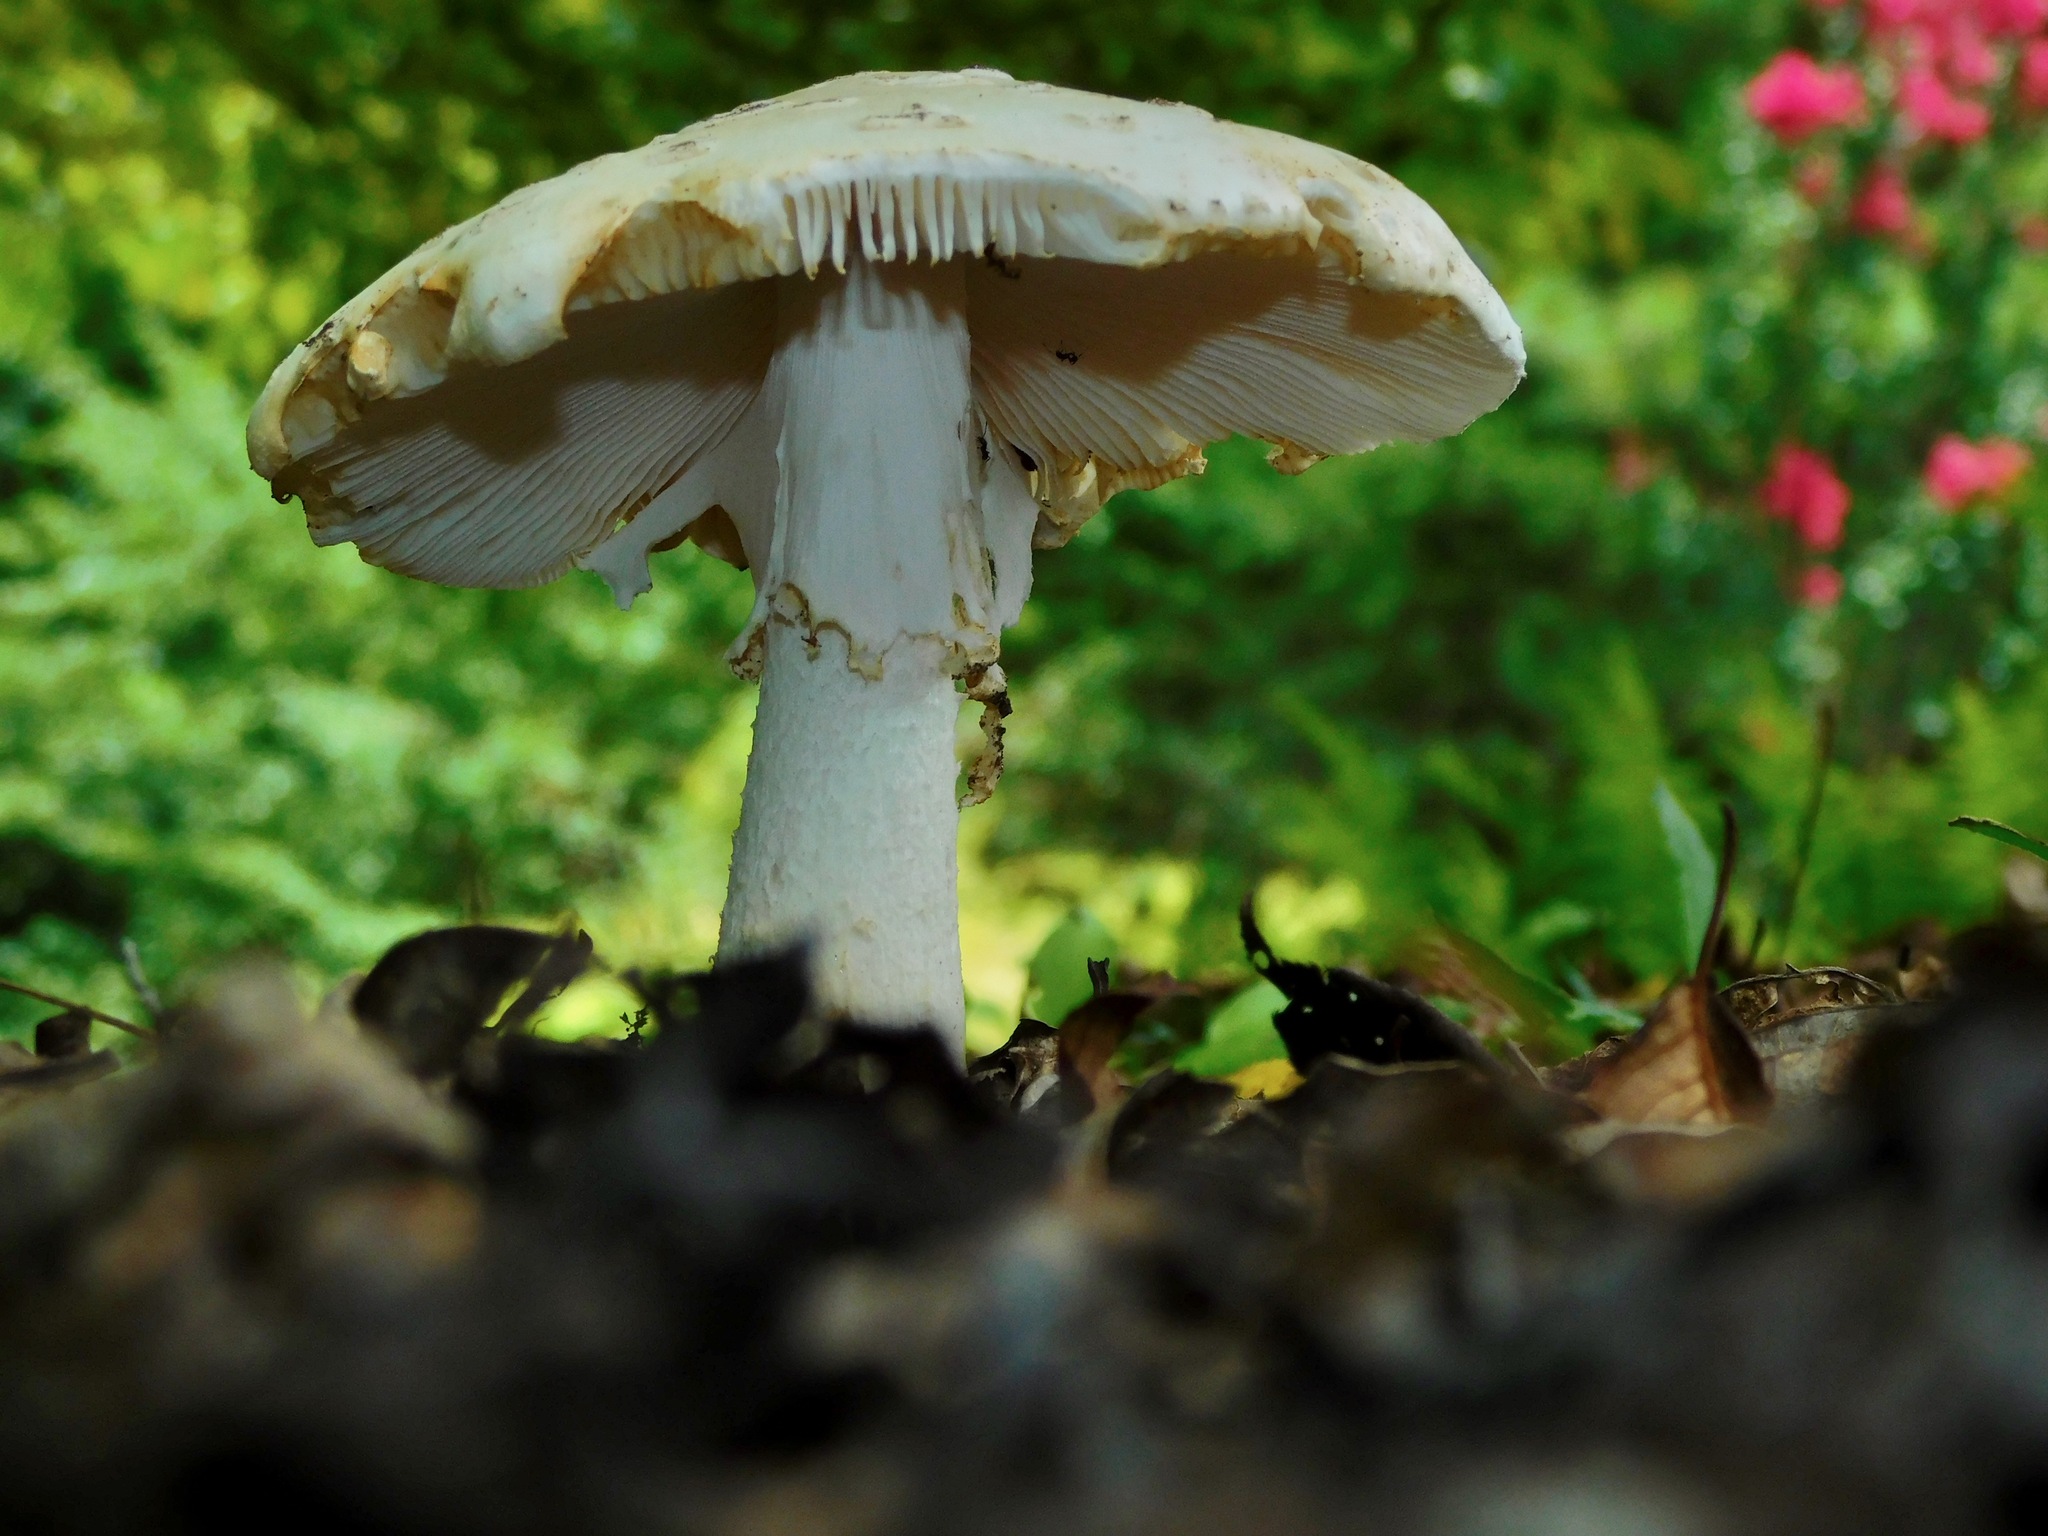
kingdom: Fungi
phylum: Basidiomycota
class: Agaricomycetes
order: Agaricales
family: Amanitaceae
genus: Amanita
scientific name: Amanita daucipes
